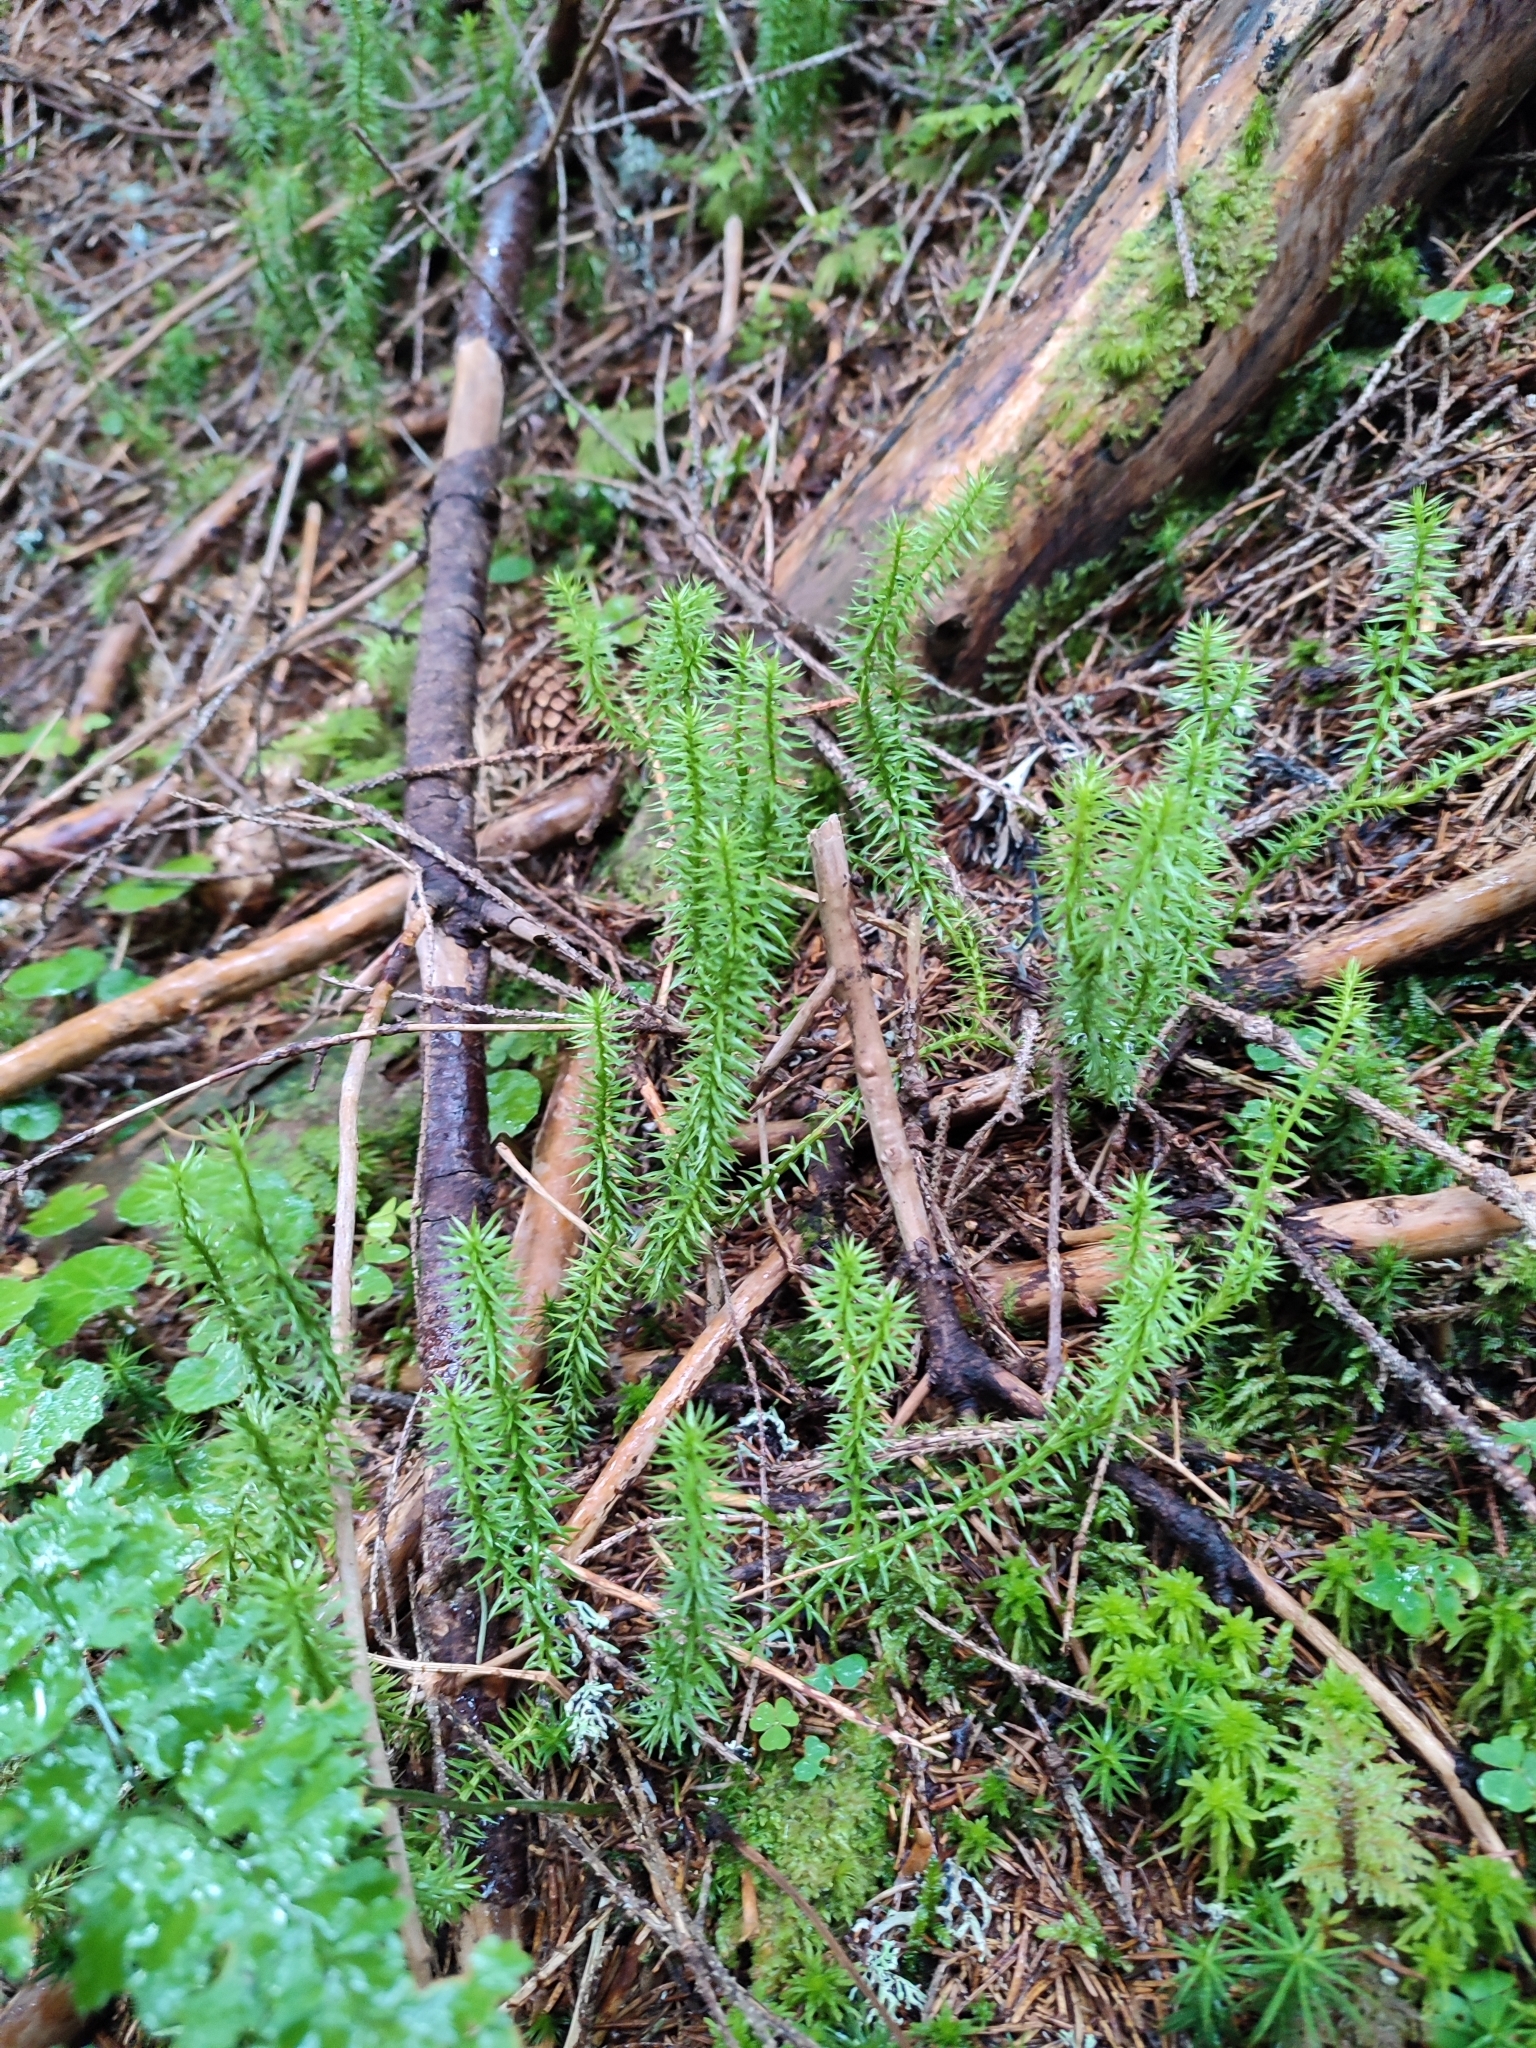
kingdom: Plantae
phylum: Tracheophyta
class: Lycopodiopsida
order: Lycopodiales
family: Lycopodiaceae
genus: Spinulum
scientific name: Spinulum annotinum
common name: Interrupted club-moss
